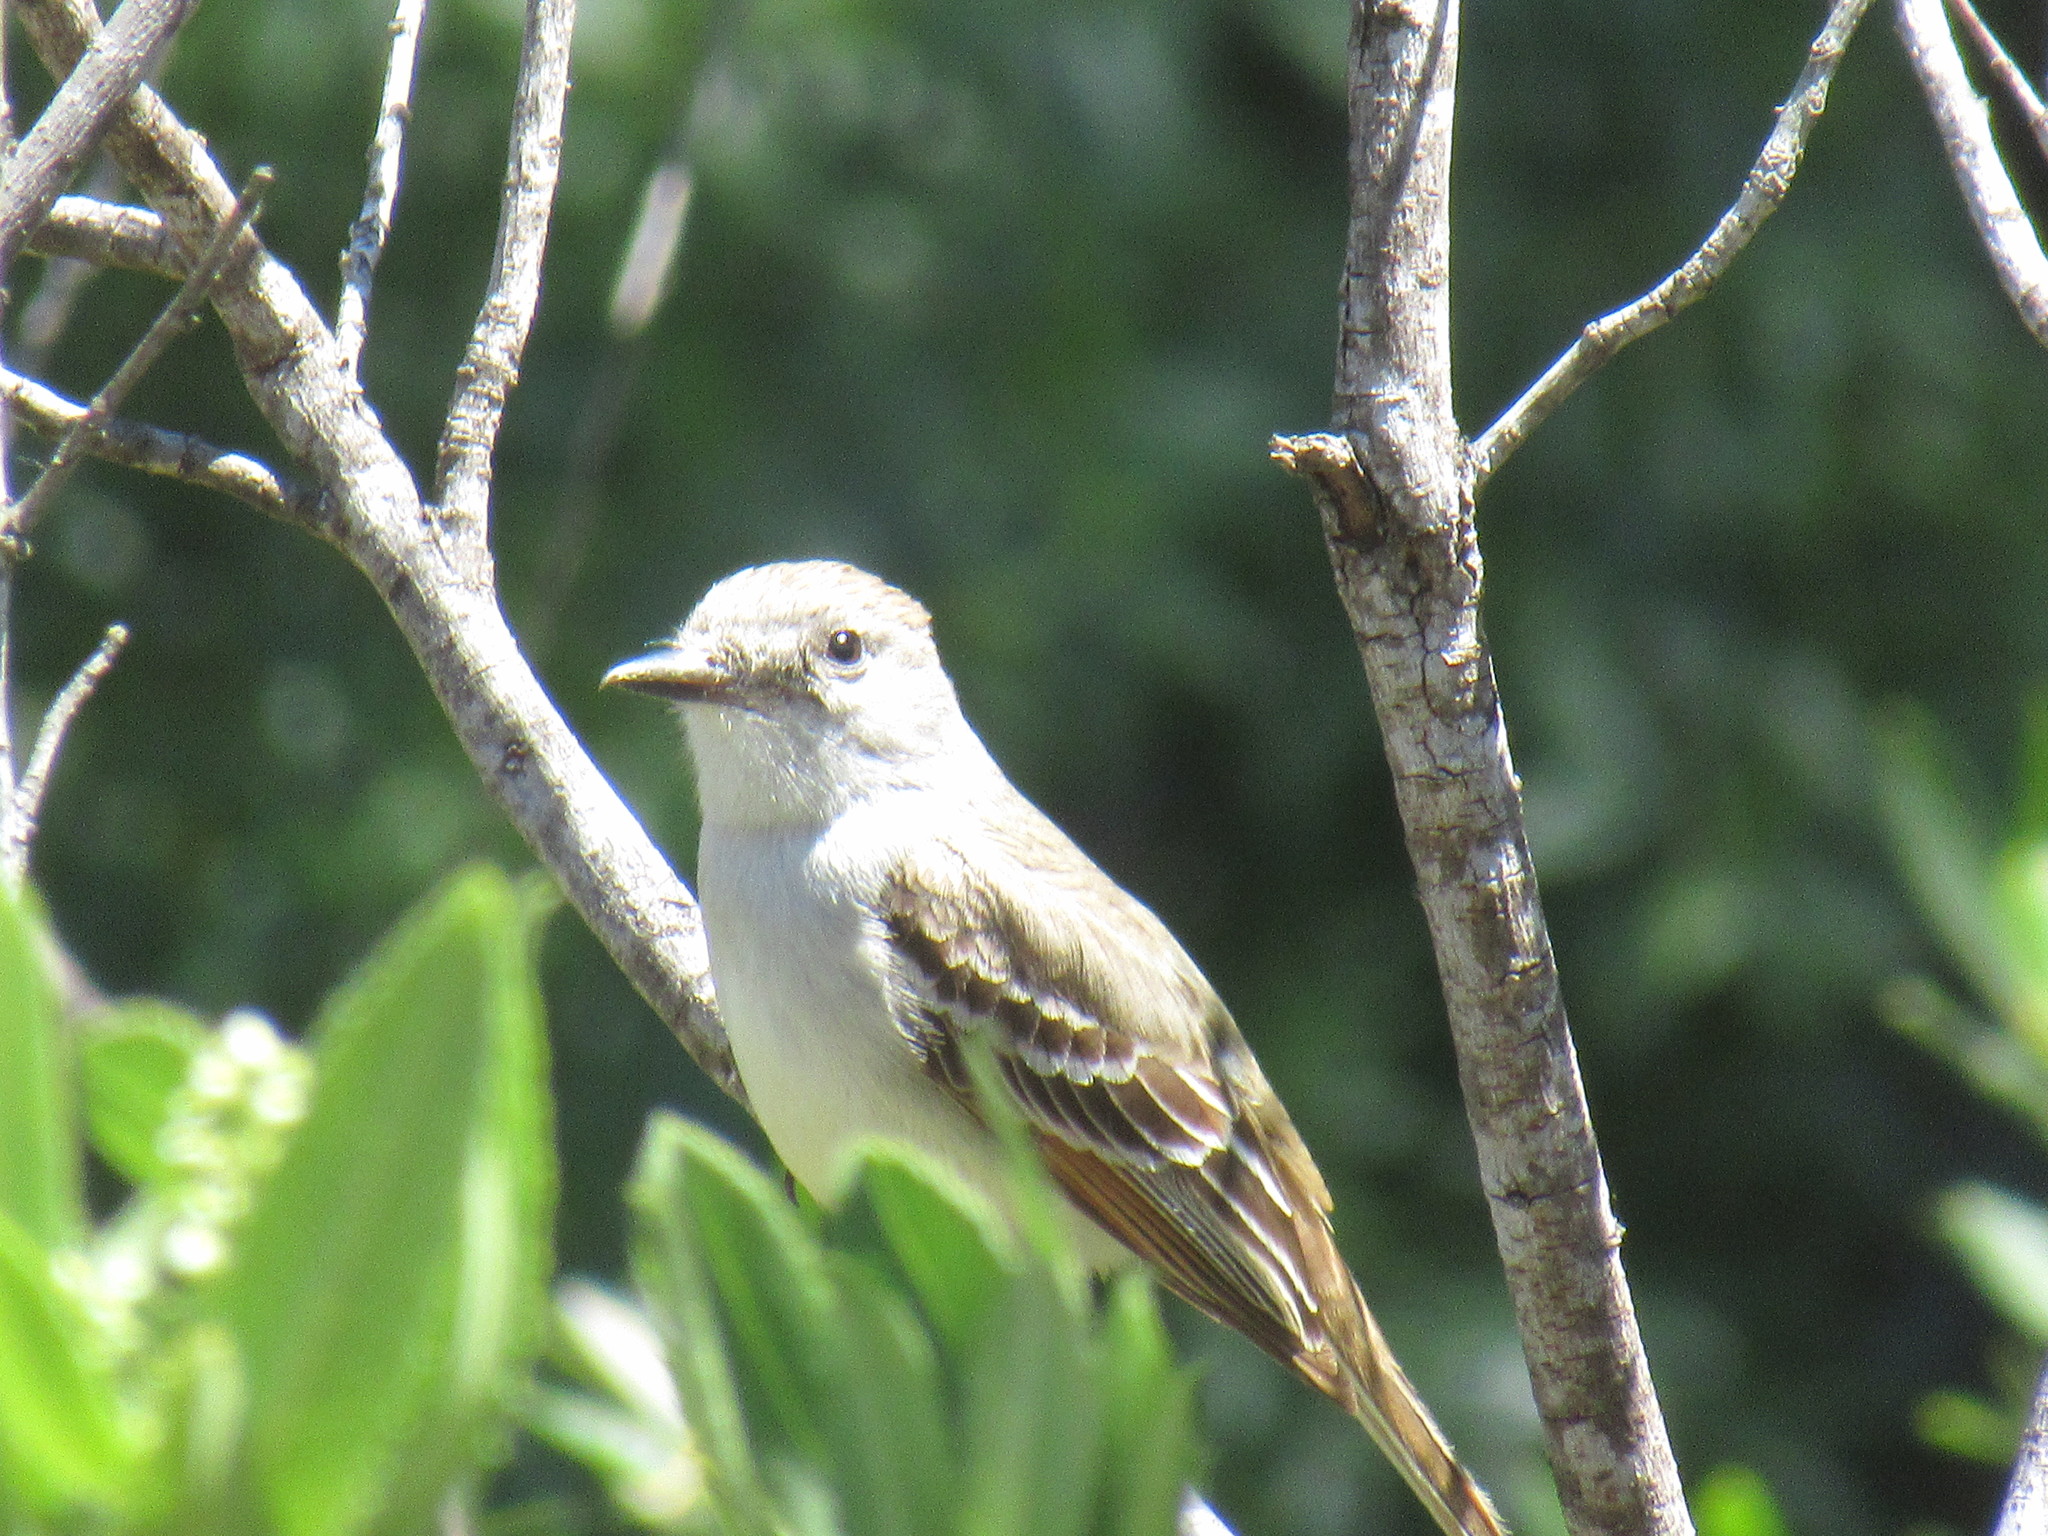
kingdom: Animalia
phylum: Chordata
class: Aves
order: Passeriformes
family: Tyrannidae
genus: Myiarchus
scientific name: Myiarchus cinerascens
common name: Ash-throated flycatcher
